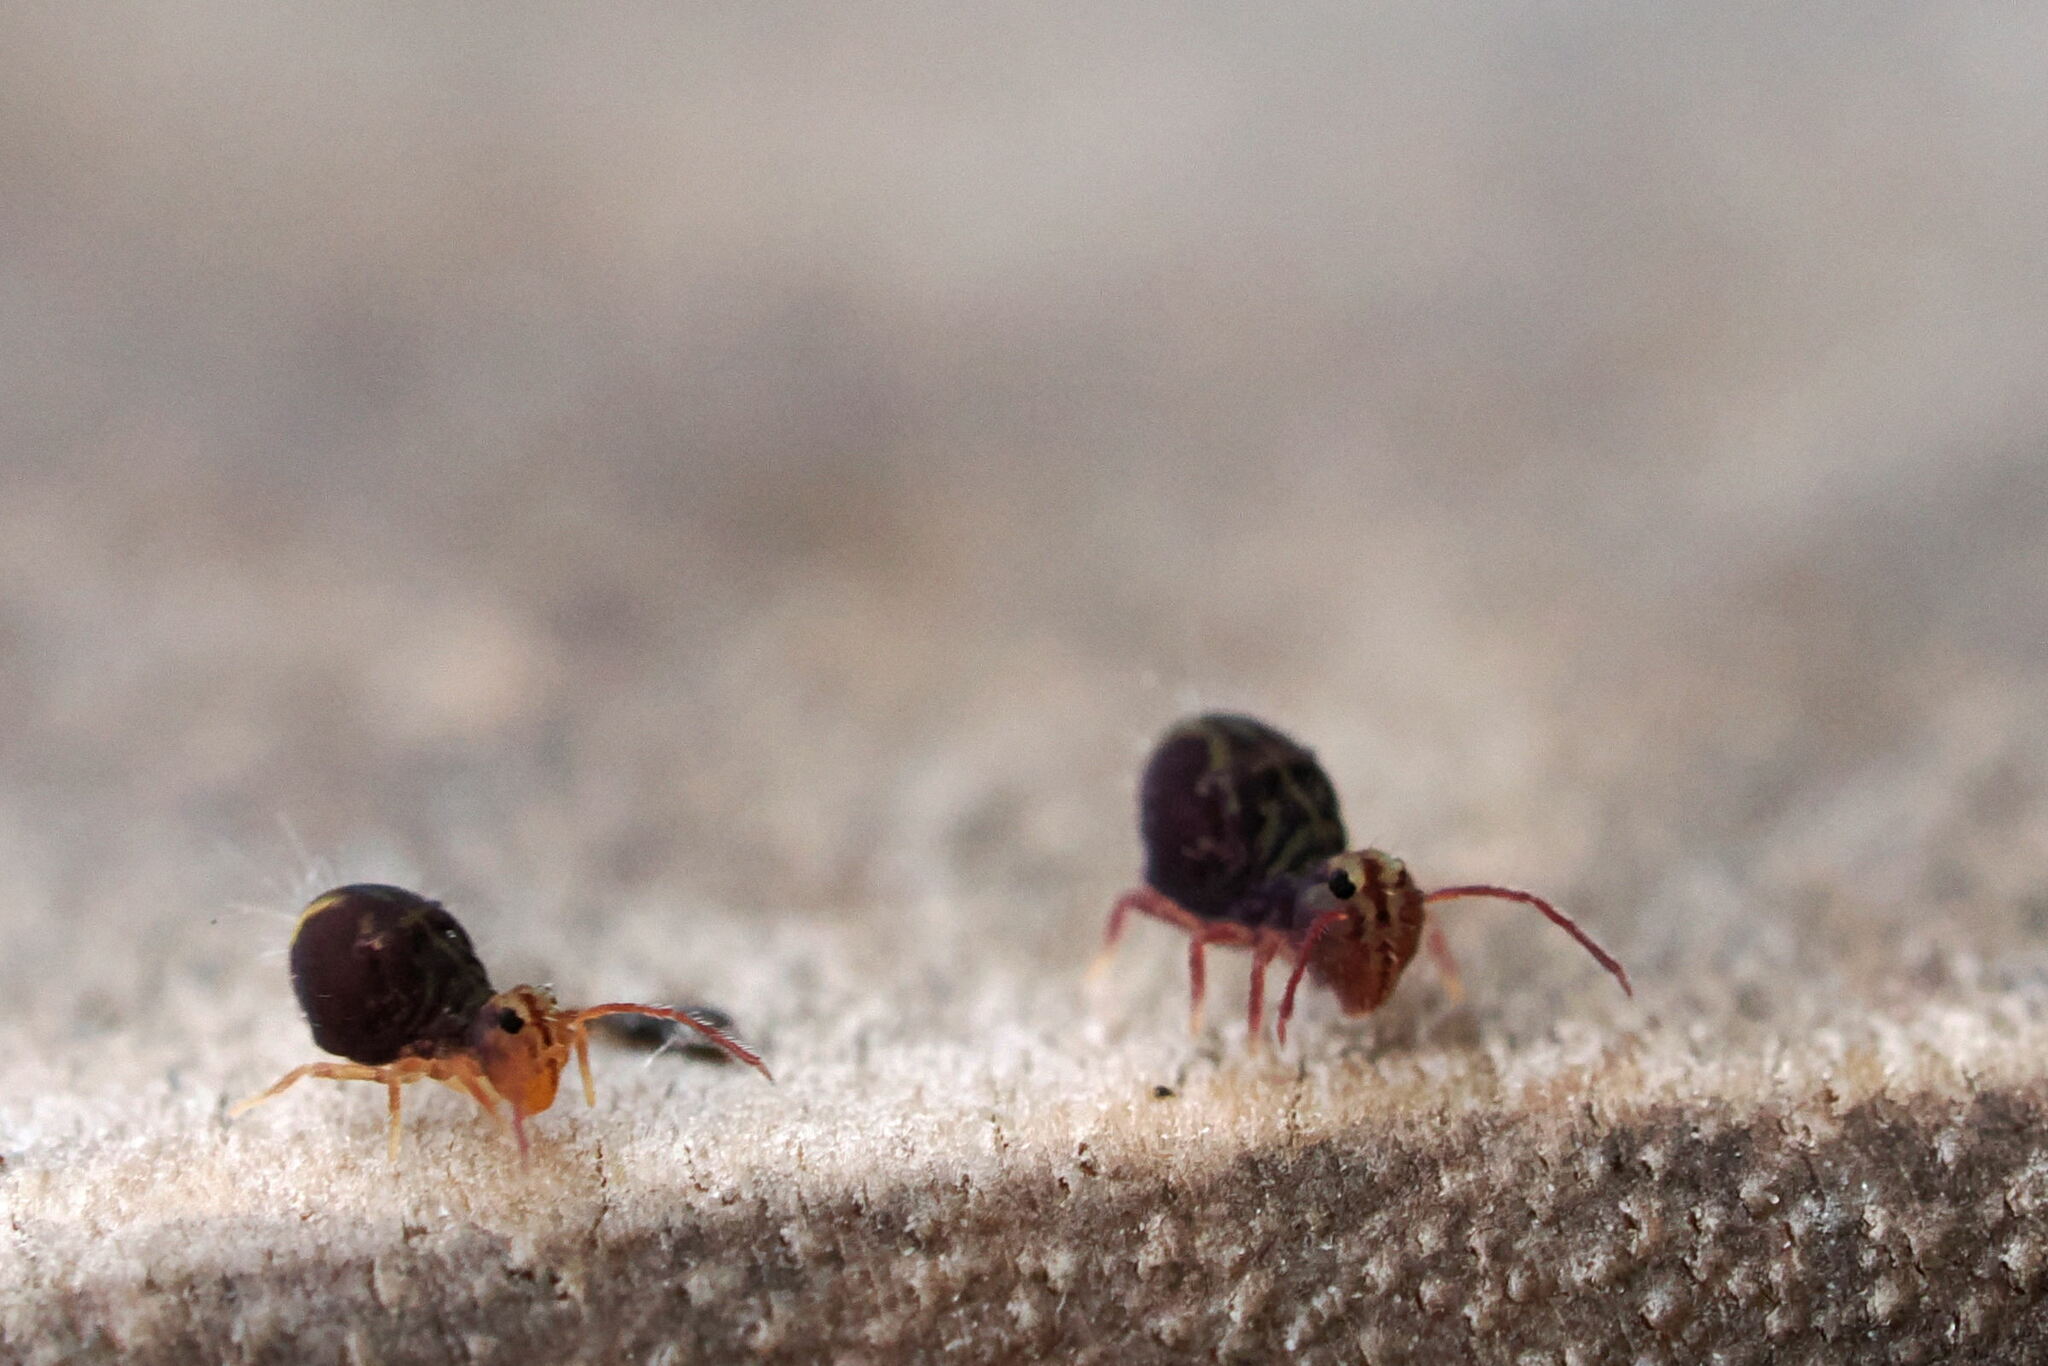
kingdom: Animalia
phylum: Arthropoda
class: Collembola
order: Symphypleona
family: Dicyrtomidae
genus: Dicyrtomina
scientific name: Dicyrtomina saundersi
